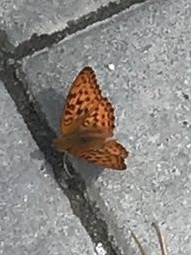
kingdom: Animalia
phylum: Arthropoda
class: Insecta
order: Lepidoptera
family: Nymphalidae
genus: Fabriciana
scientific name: Fabriciana adippe
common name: High brown fritillary
